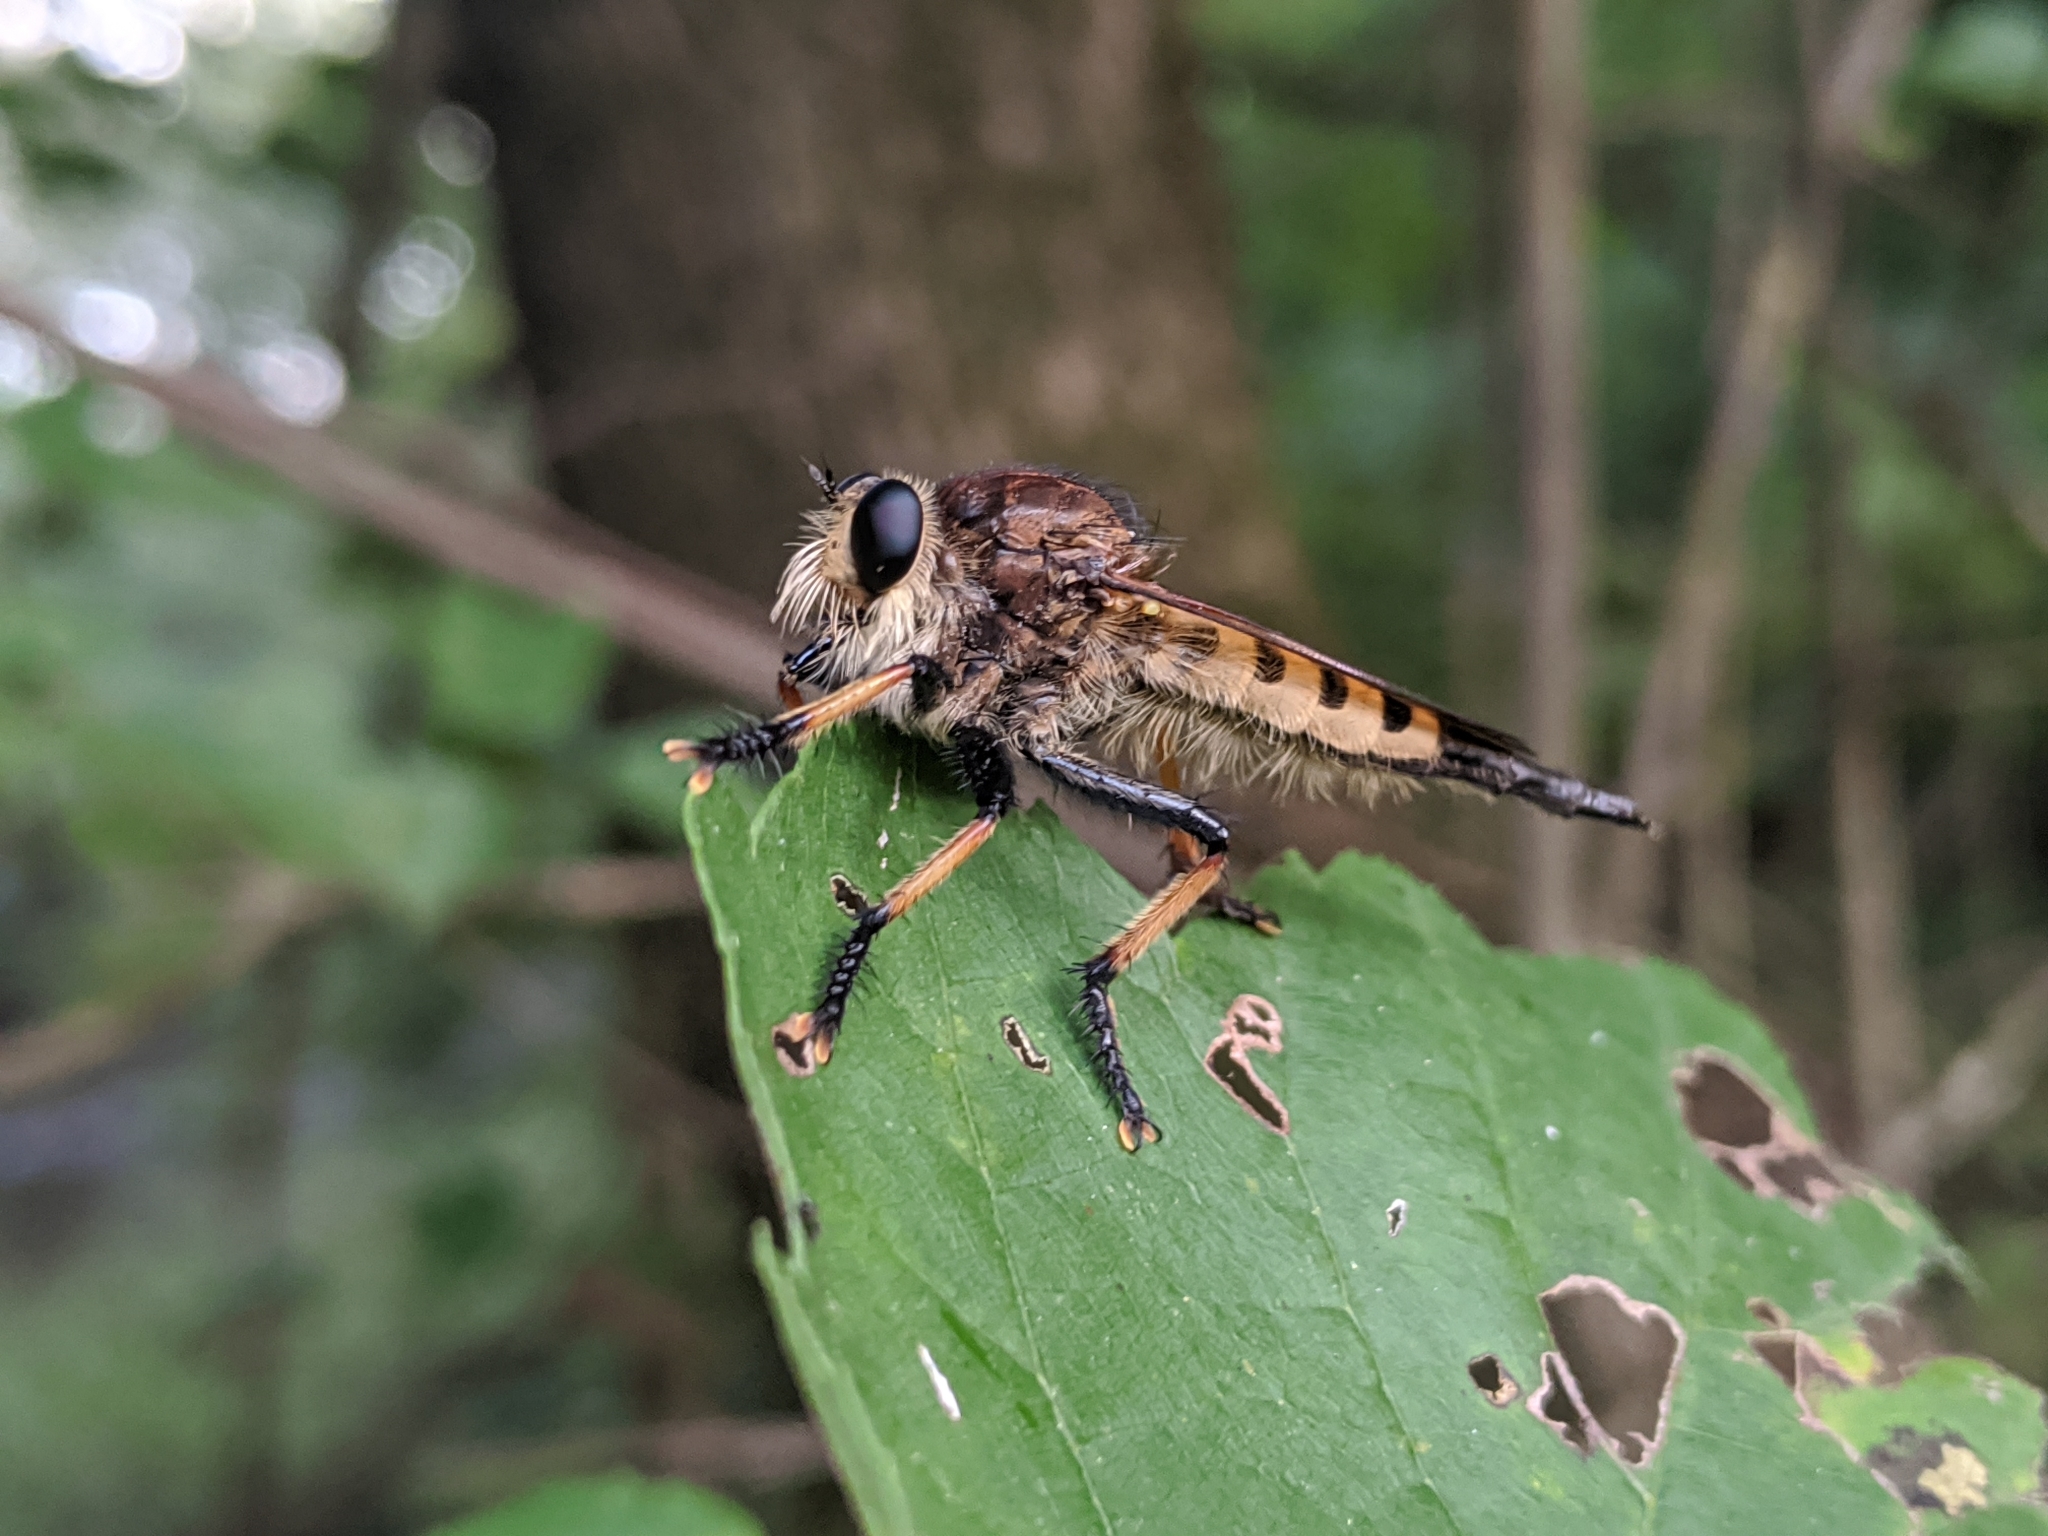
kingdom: Animalia
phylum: Arthropoda
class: Insecta
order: Diptera
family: Asilidae
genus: Promachus
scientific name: Promachus rufipes
